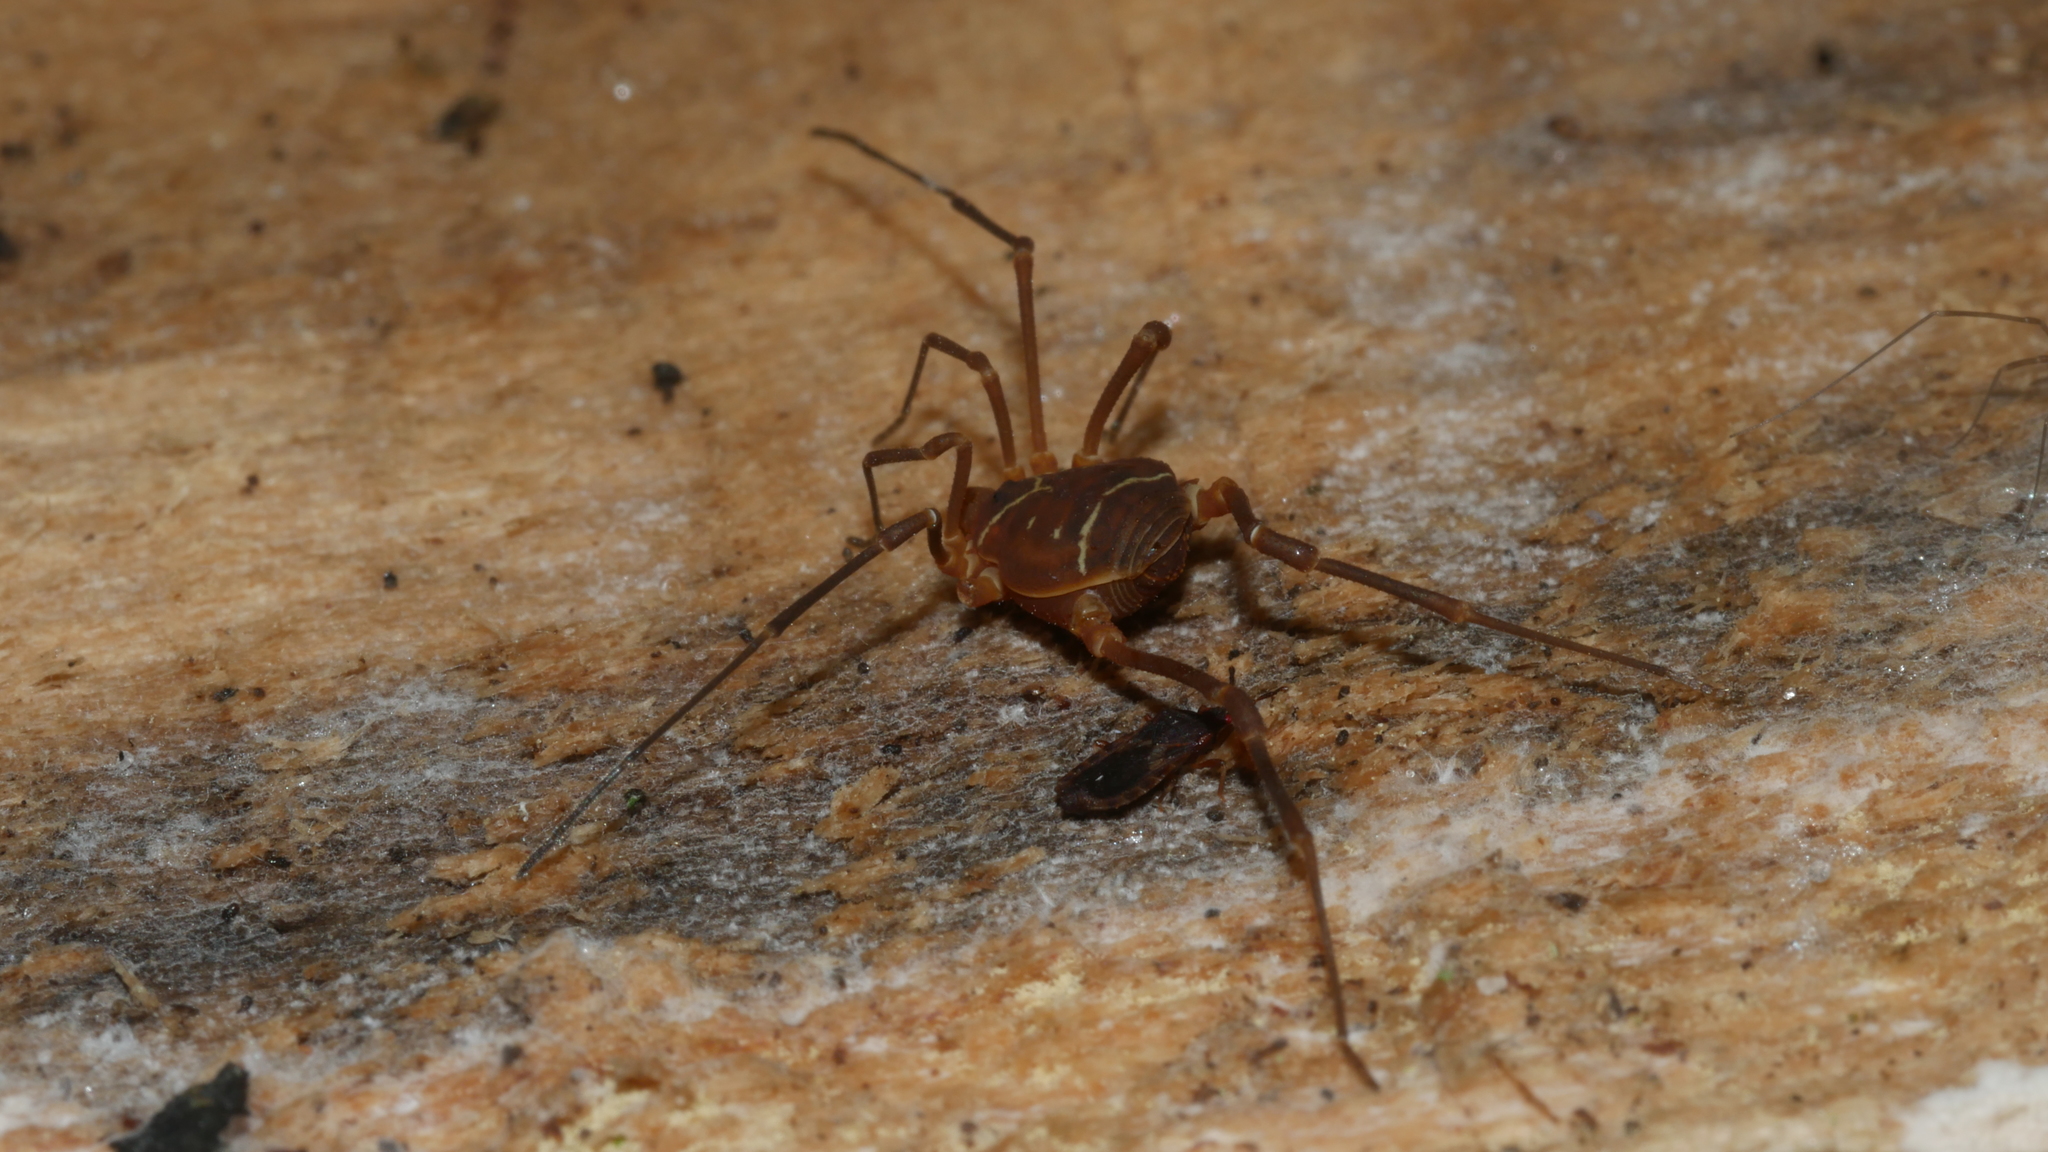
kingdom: Animalia
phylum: Arthropoda
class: Arachnida
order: Opiliones
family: Cosmetidae
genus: Libitioides
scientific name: Libitioides sayi
